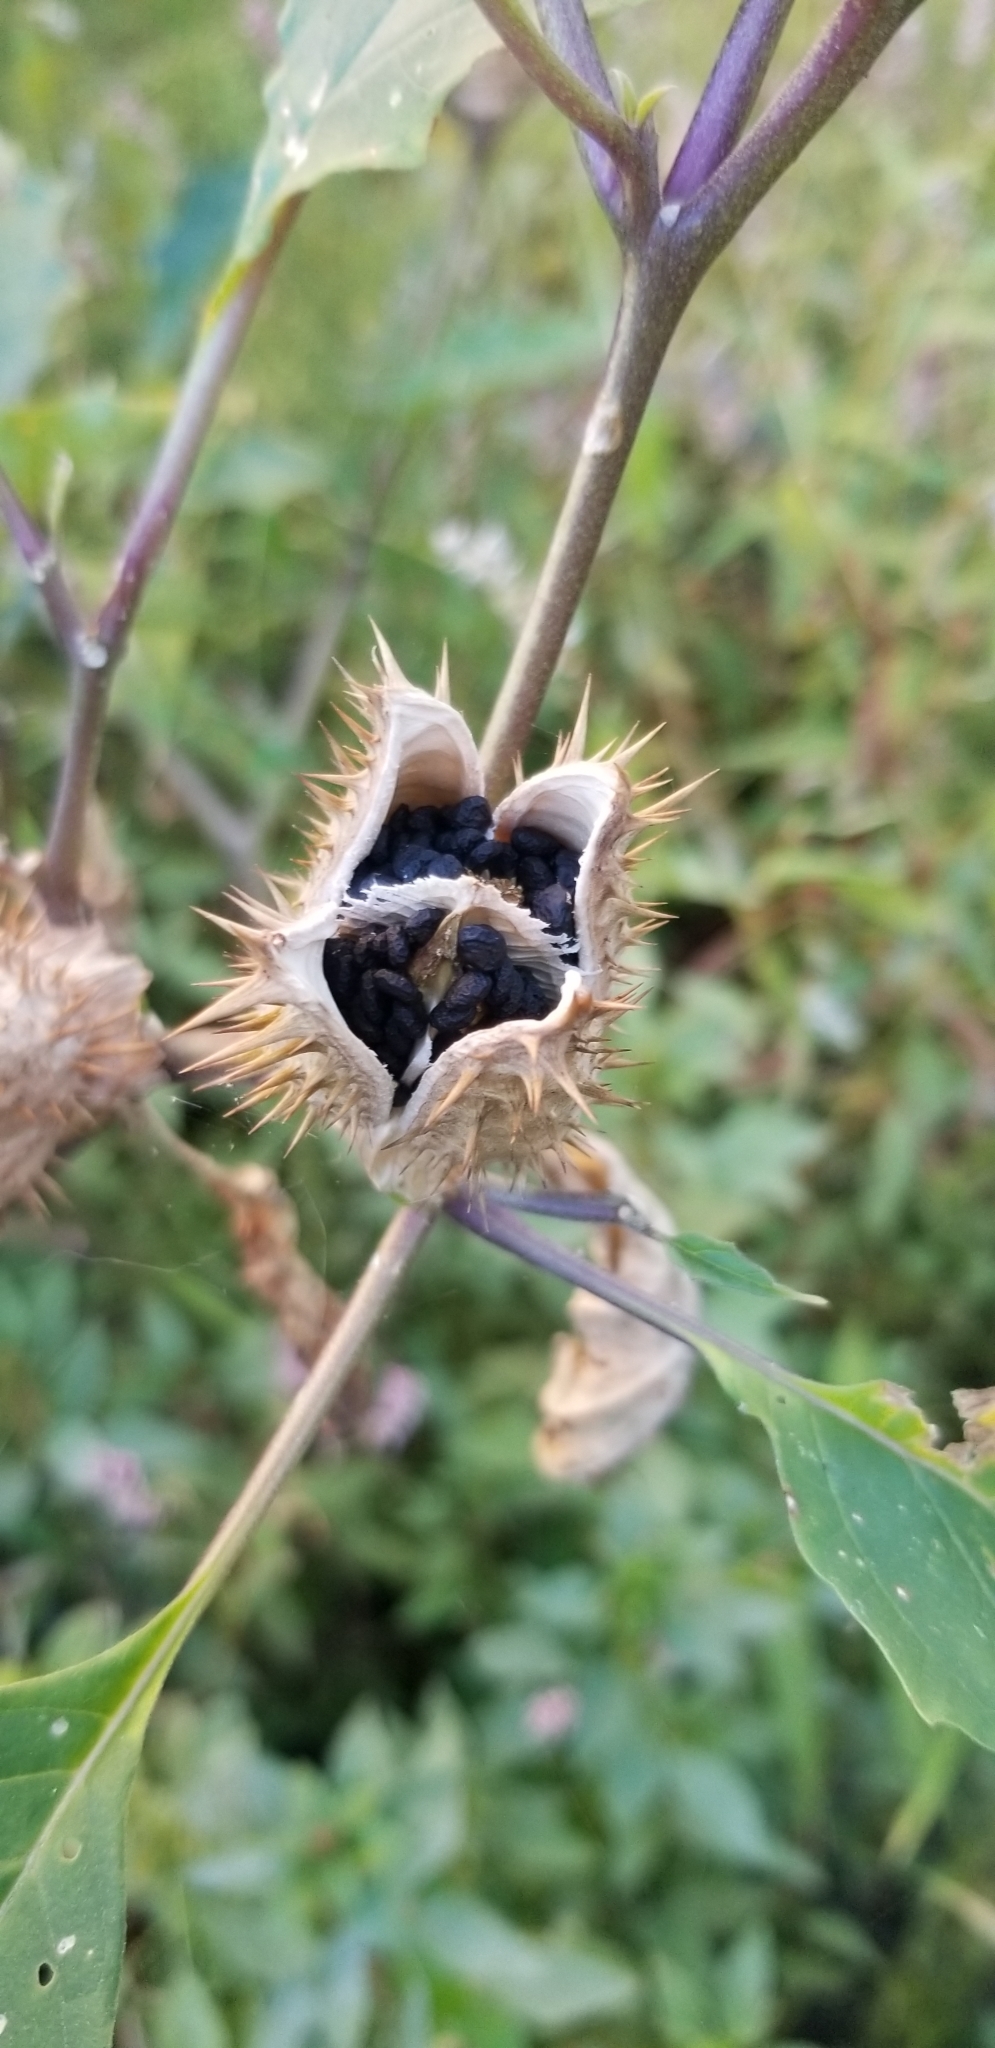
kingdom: Plantae
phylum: Tracheophyta
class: Magnoliopsida
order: Solanales
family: Solanaceae
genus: Datura
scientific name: Datura stramonium
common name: Thorn-apple
